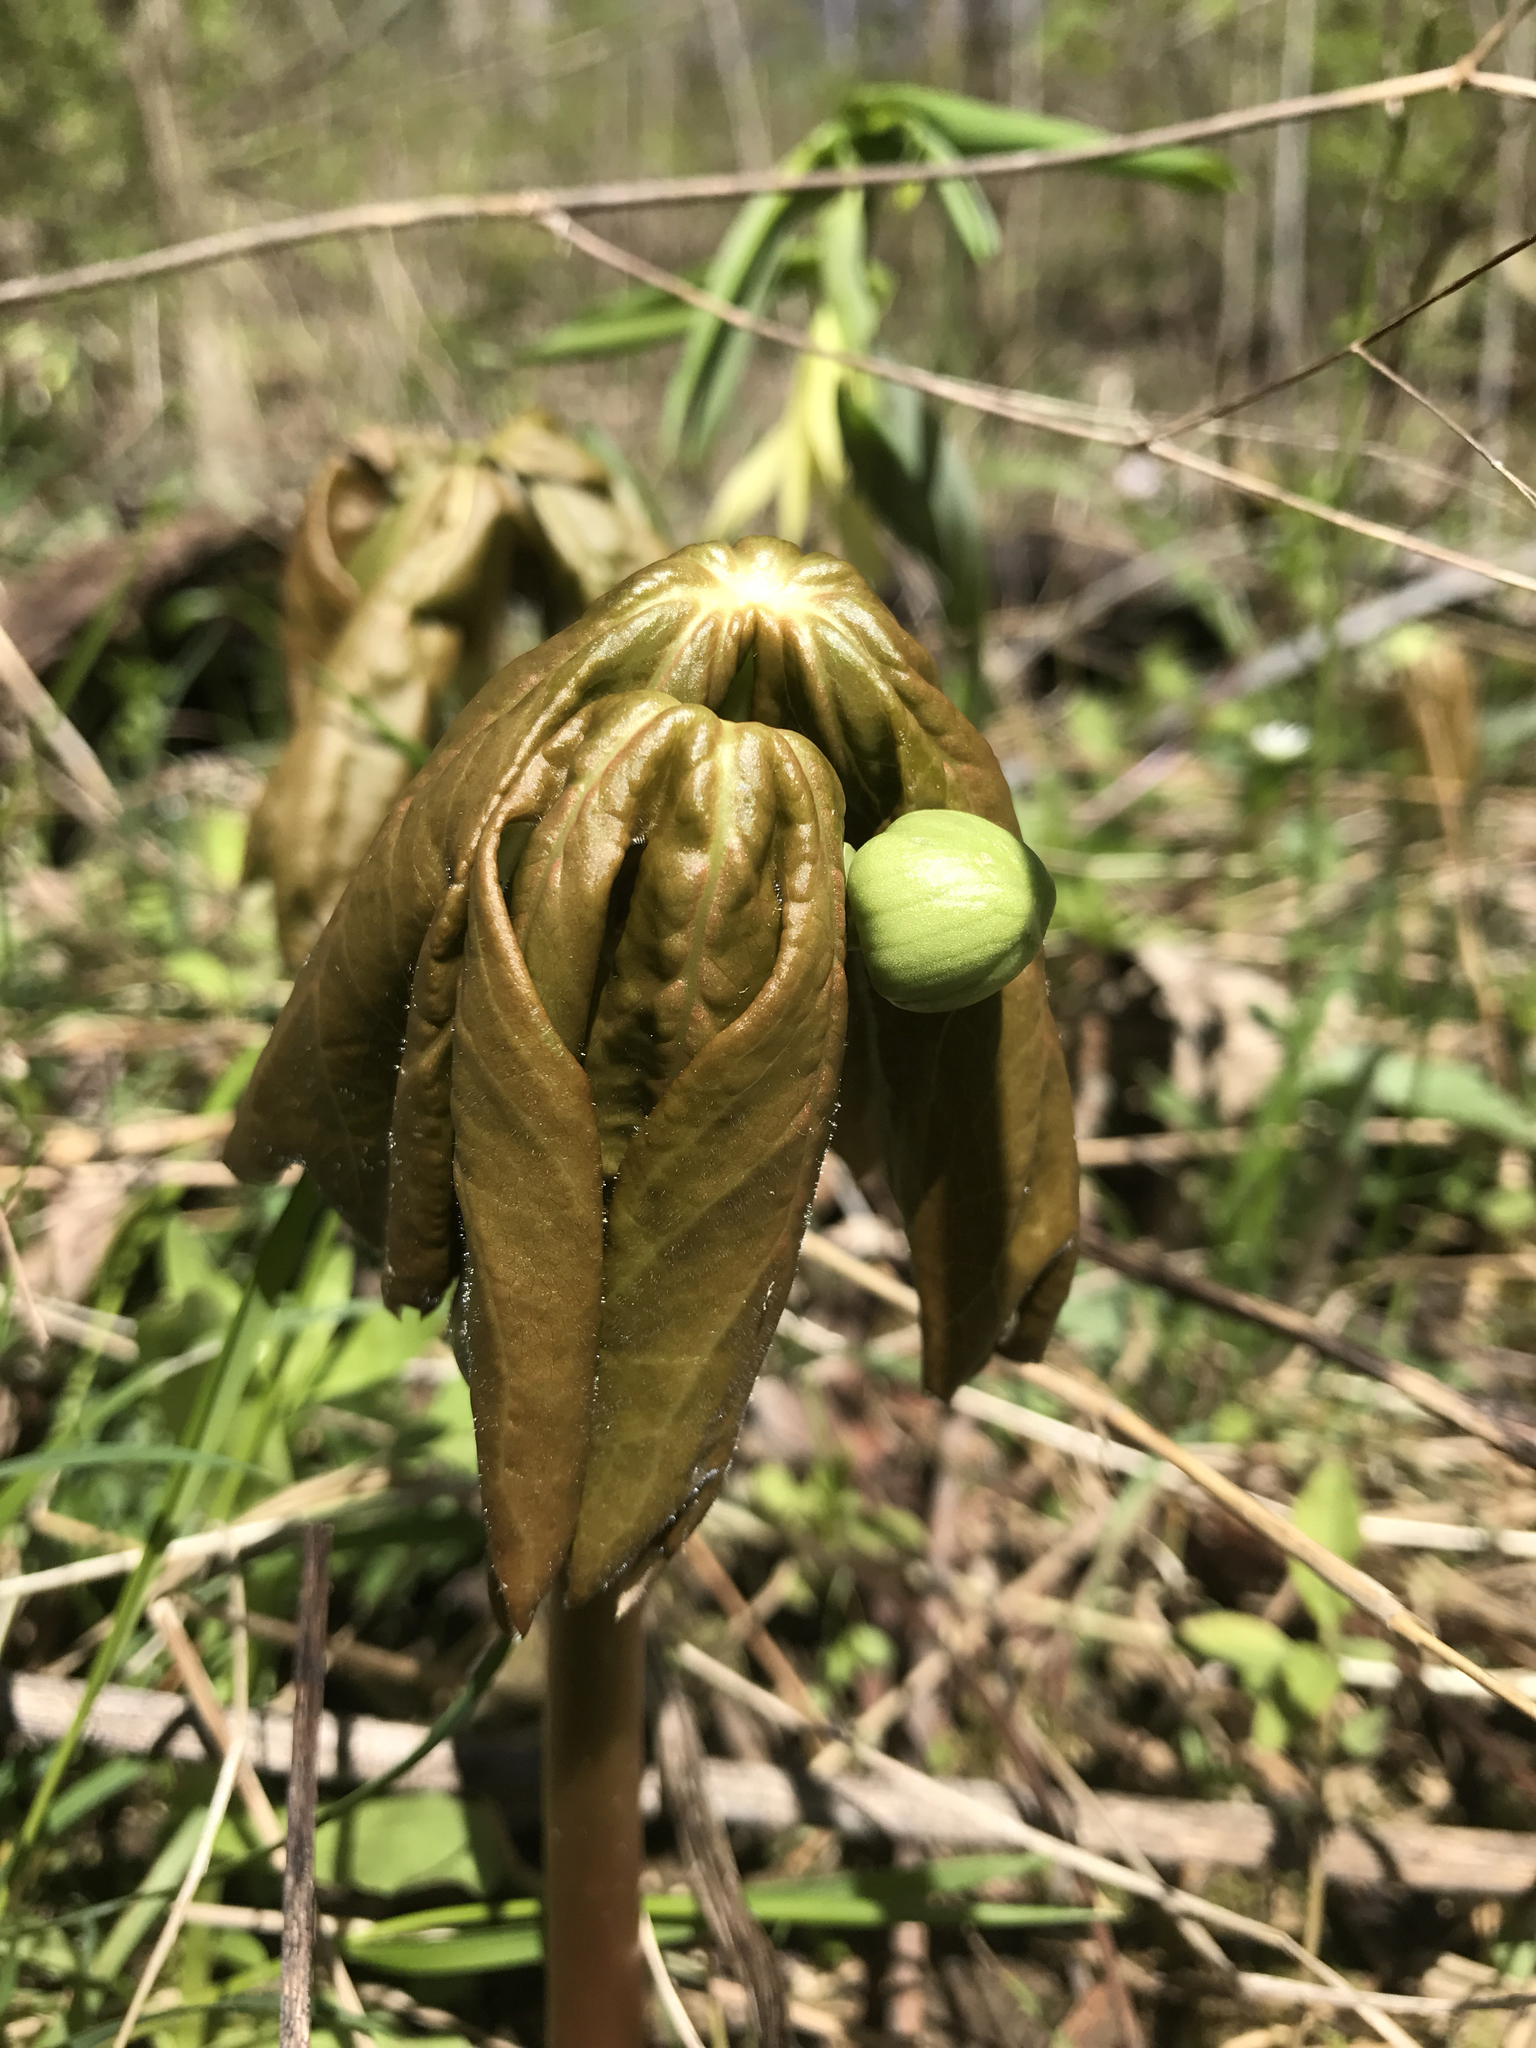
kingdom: Plantae
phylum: Tracheophyta
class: Magnoliopsida
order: Ranunculales
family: Berberidaceae
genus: Podophyllum
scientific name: Podophyllum peltatum
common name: Wild mandrake
